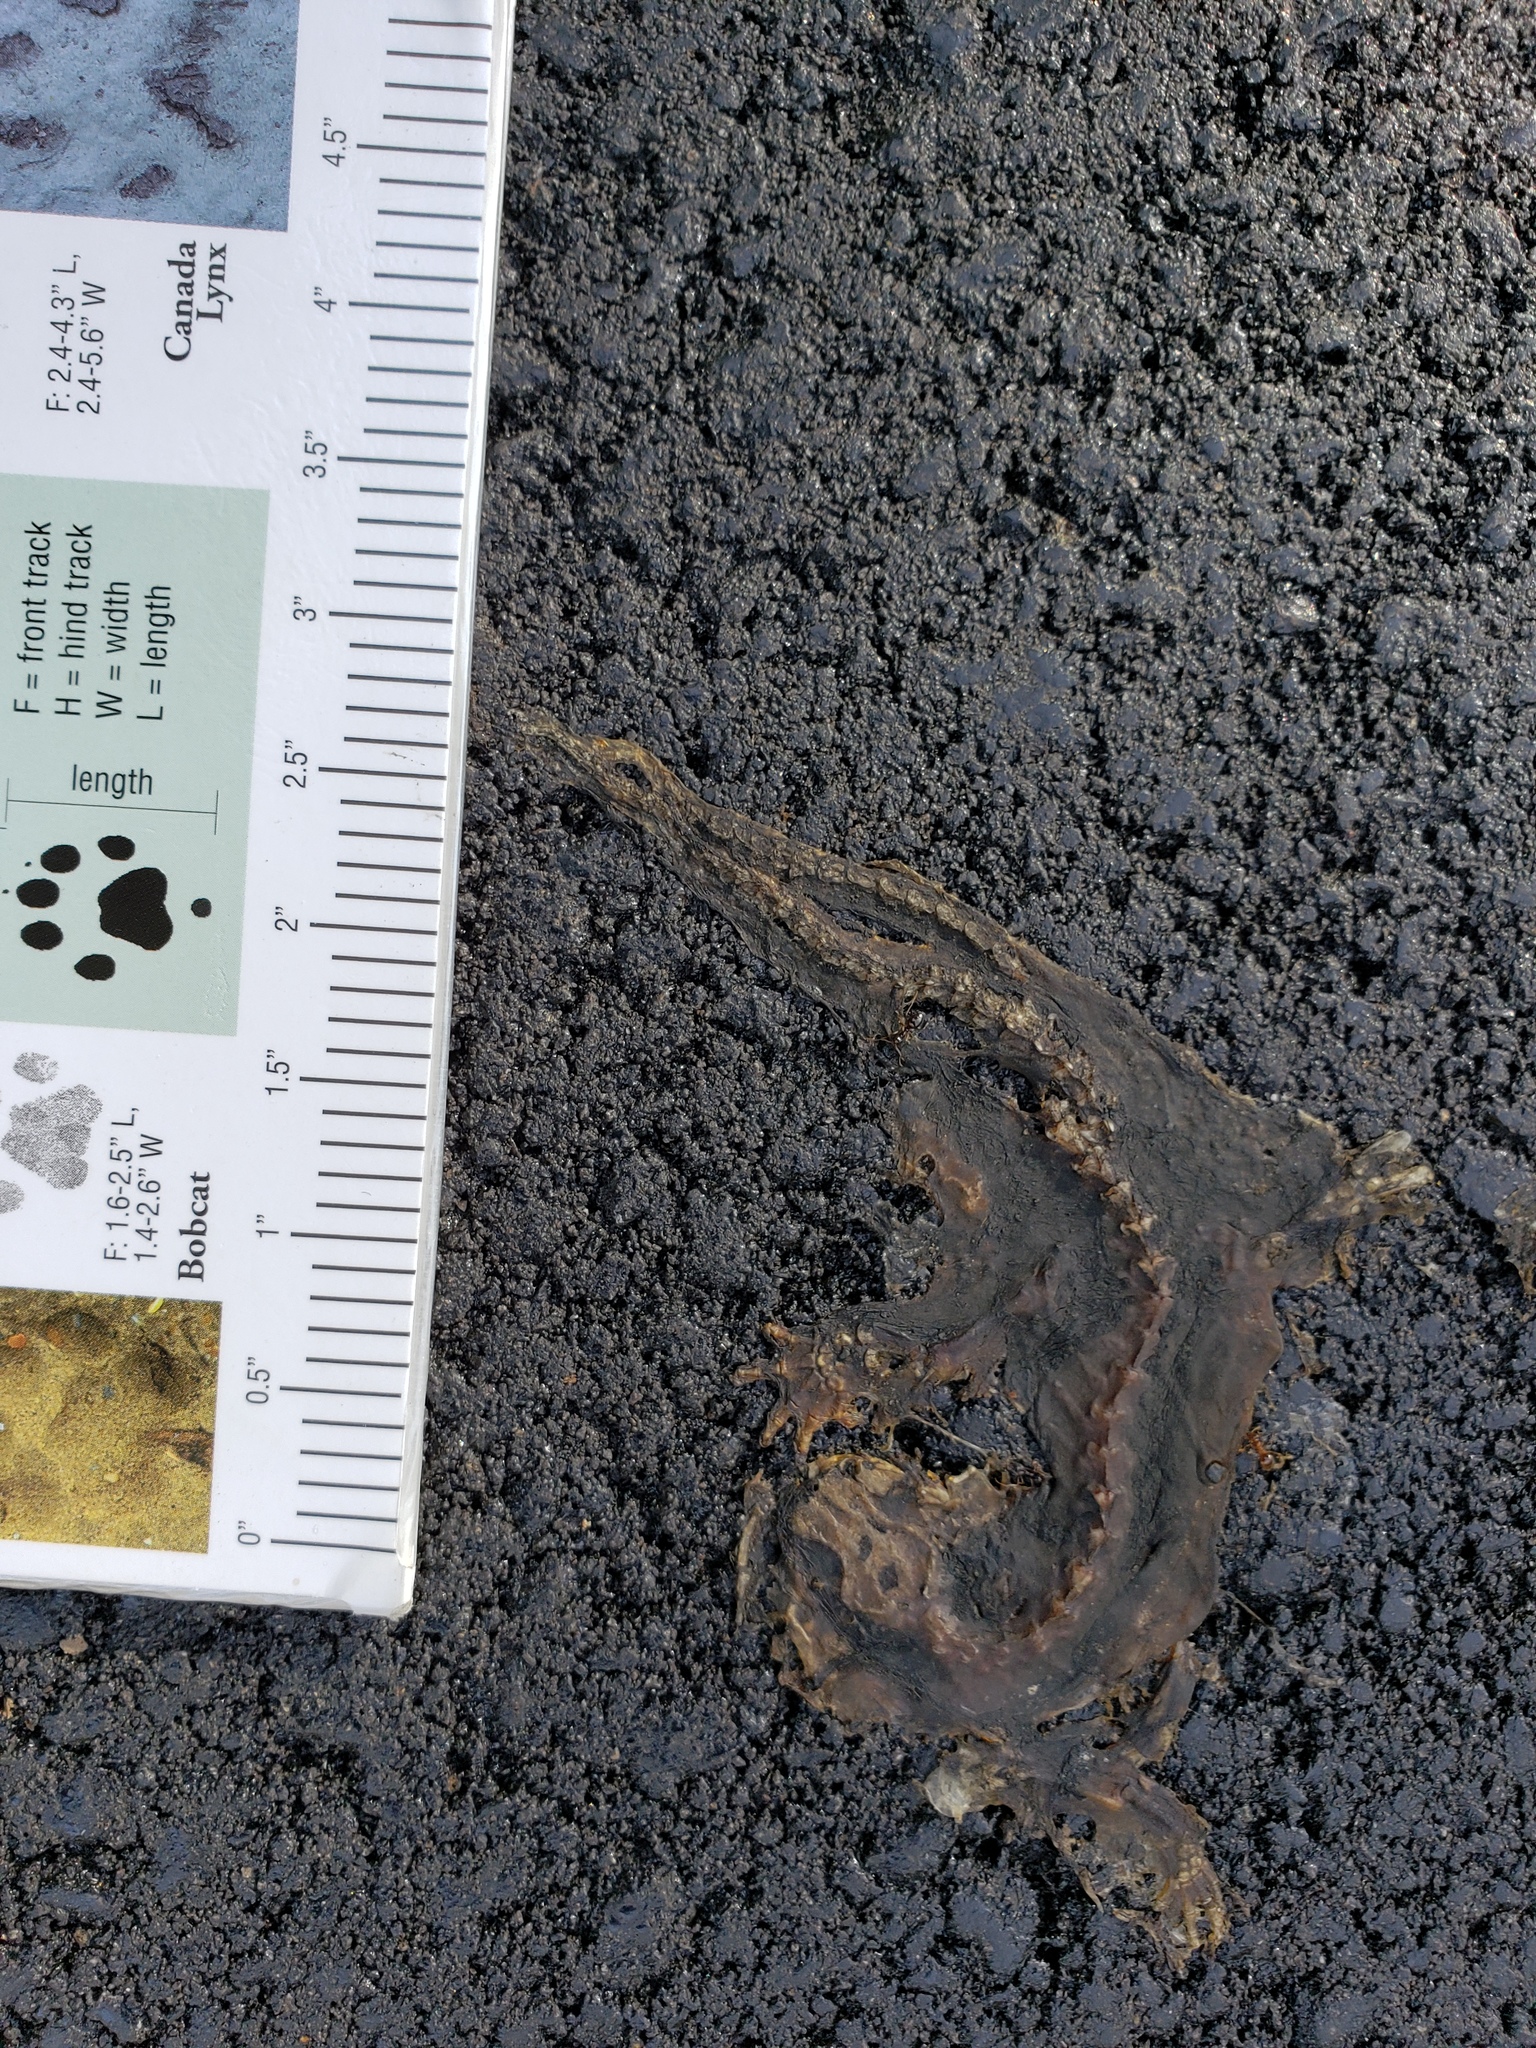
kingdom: Animalia
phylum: Chordata
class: Amphibia
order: Caudata
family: Salamandridae
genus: Taricha
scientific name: Taricha
